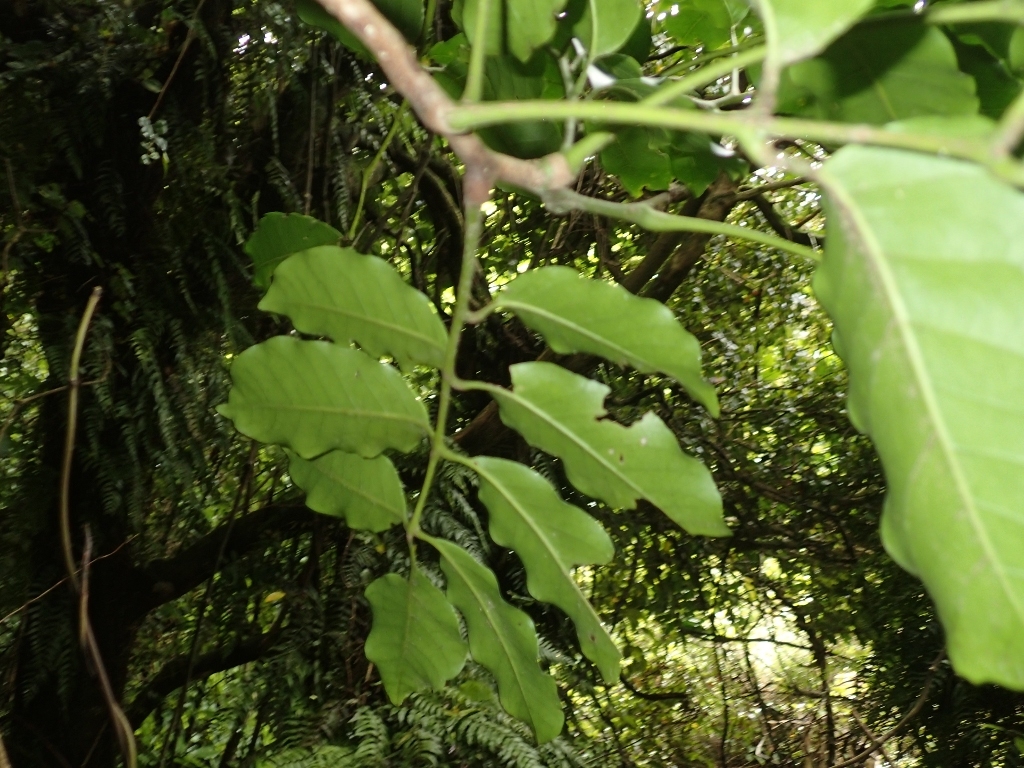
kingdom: Plantae
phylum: Tracheophyta
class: Magnoliopsida
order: Sapindales
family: Meliaceae
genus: Didymocheton
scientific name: Didymocheton spectabilis
